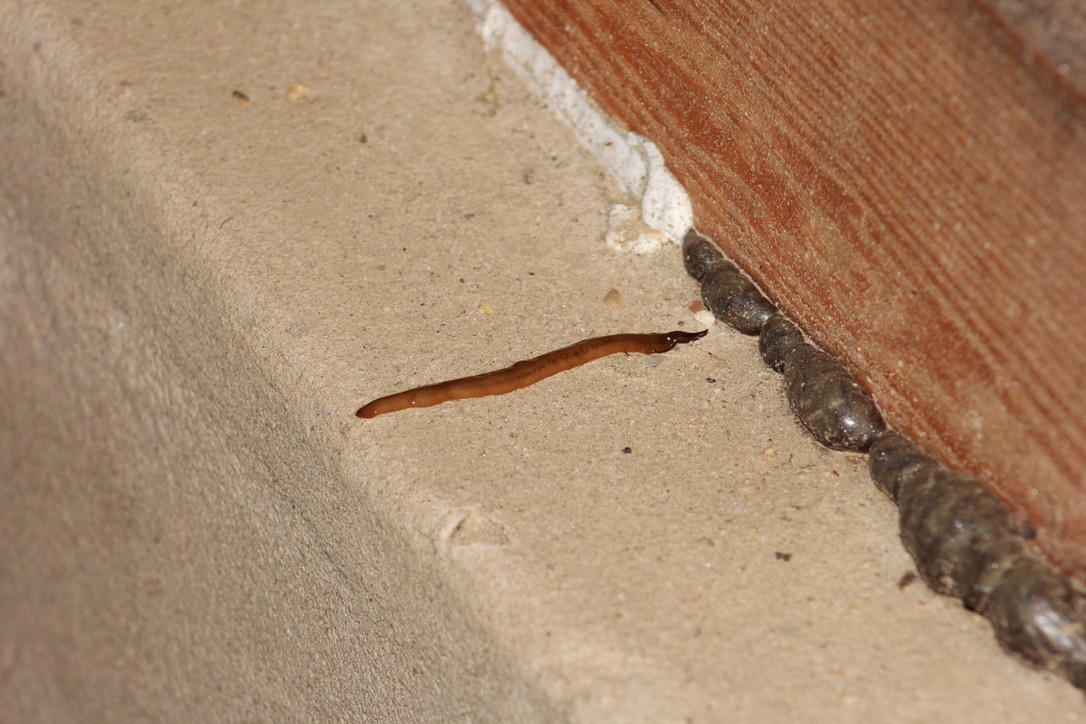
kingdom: Animalia
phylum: Platyhelminthes
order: Tricladida
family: Geoplanidae
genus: Amaga
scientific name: Amaga expatria
